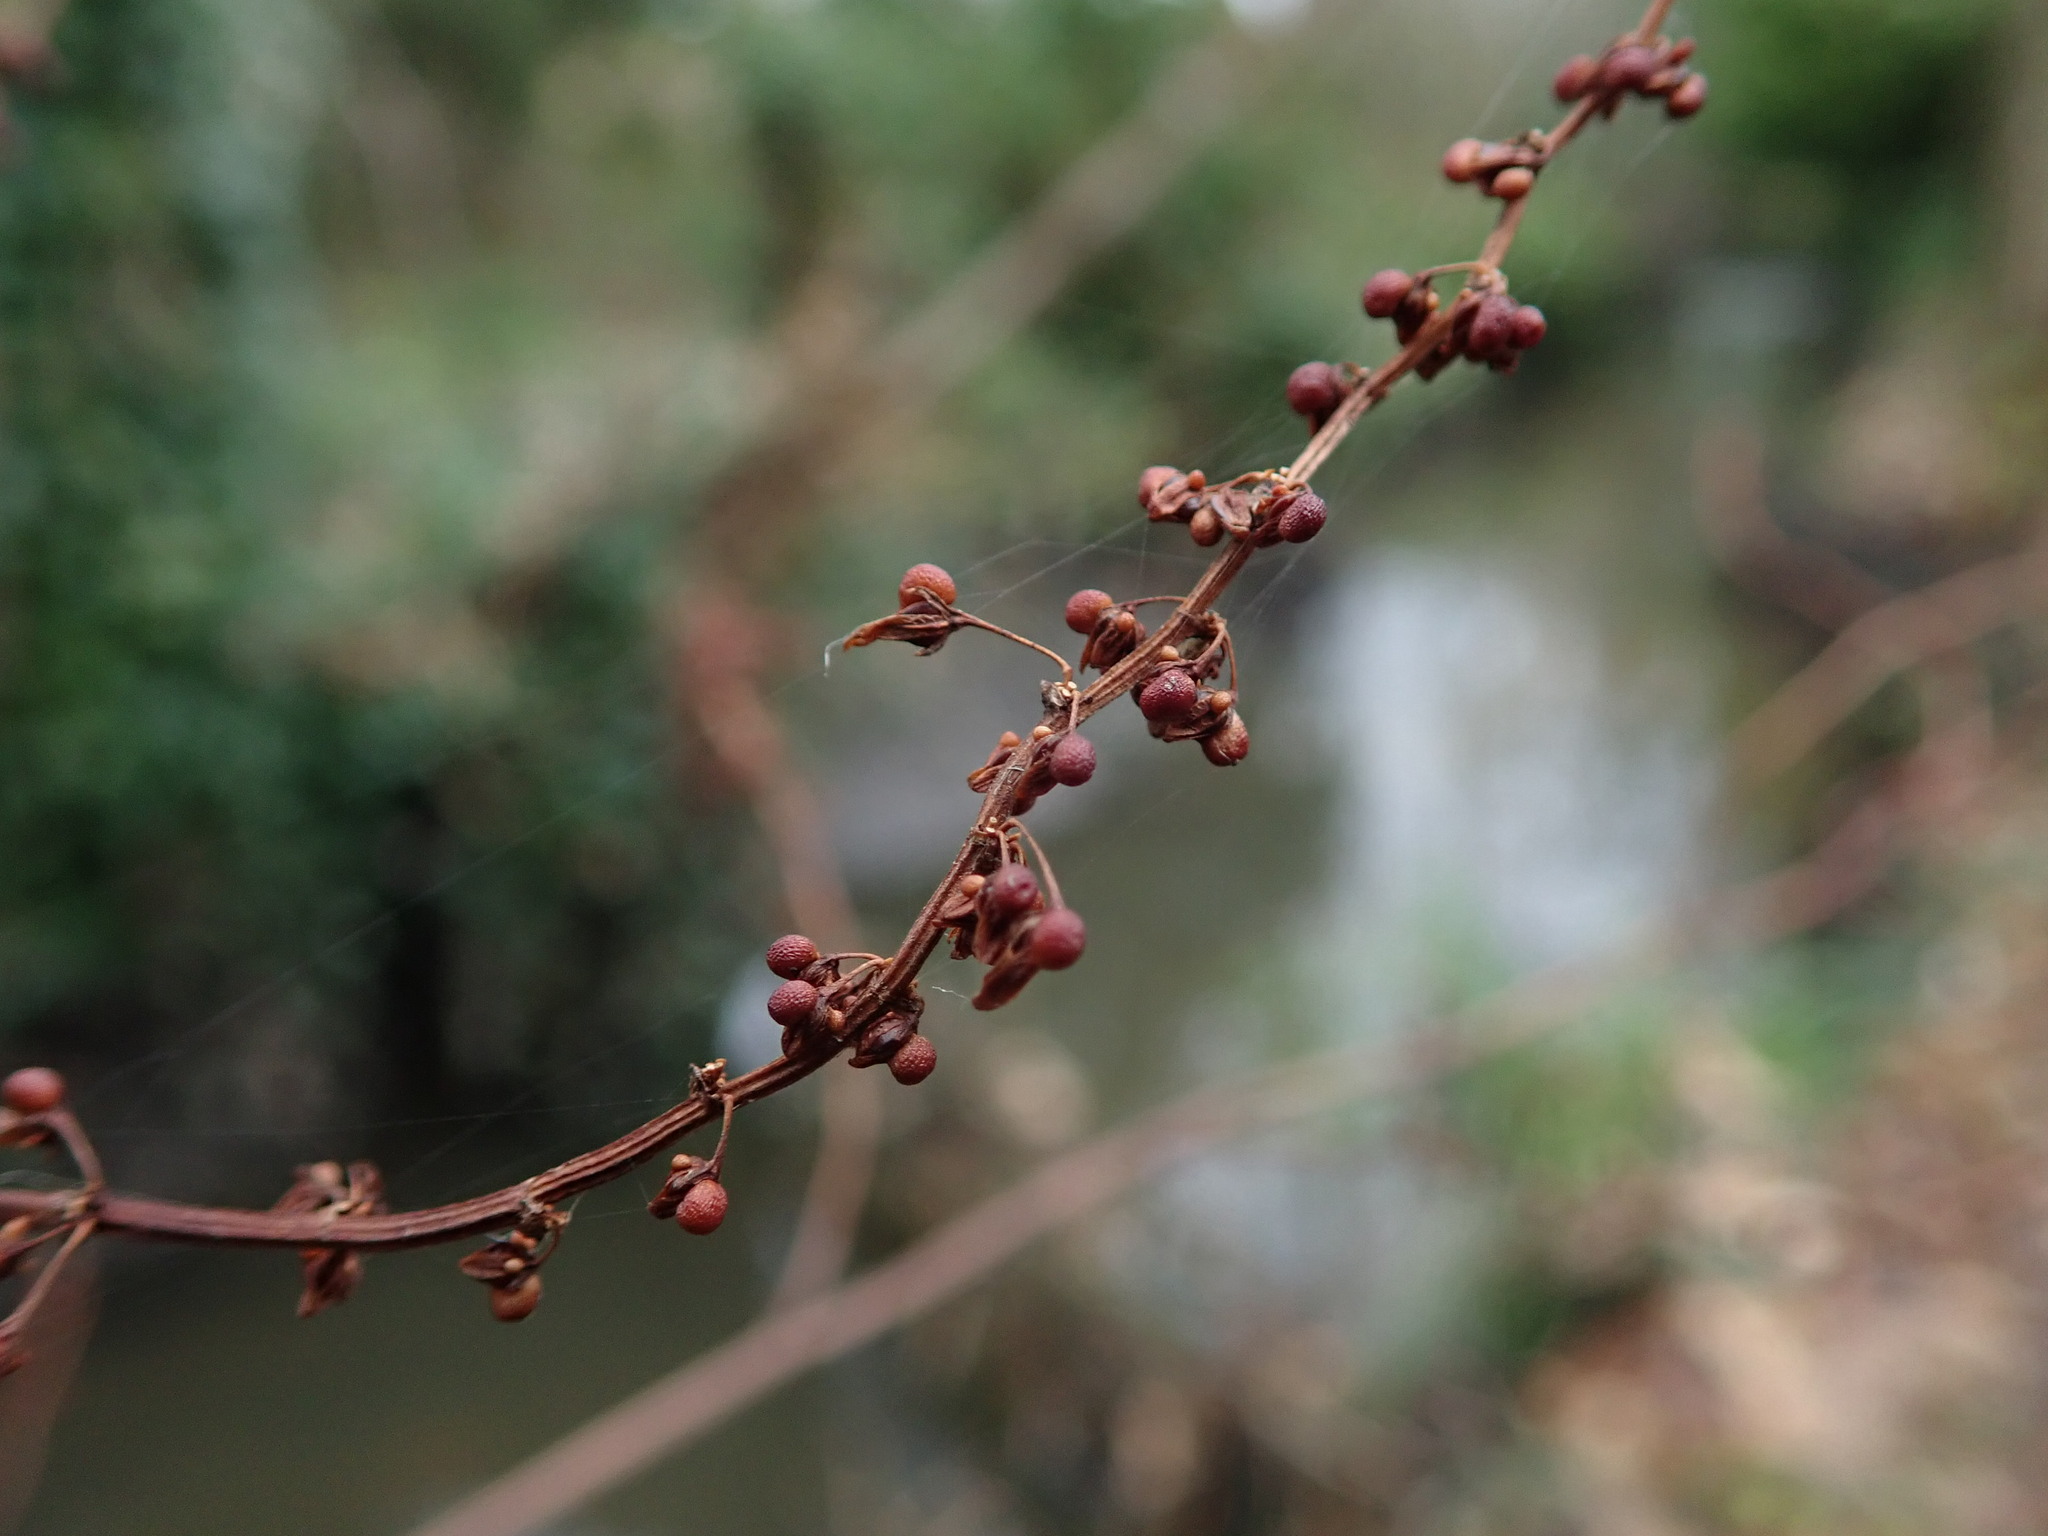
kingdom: Plantae
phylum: Tracheophyta
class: Magnoliopsida
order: Caryophyllales
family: Polygonaceae
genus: Rumex
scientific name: Rumex sanguineus
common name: Wood dock
